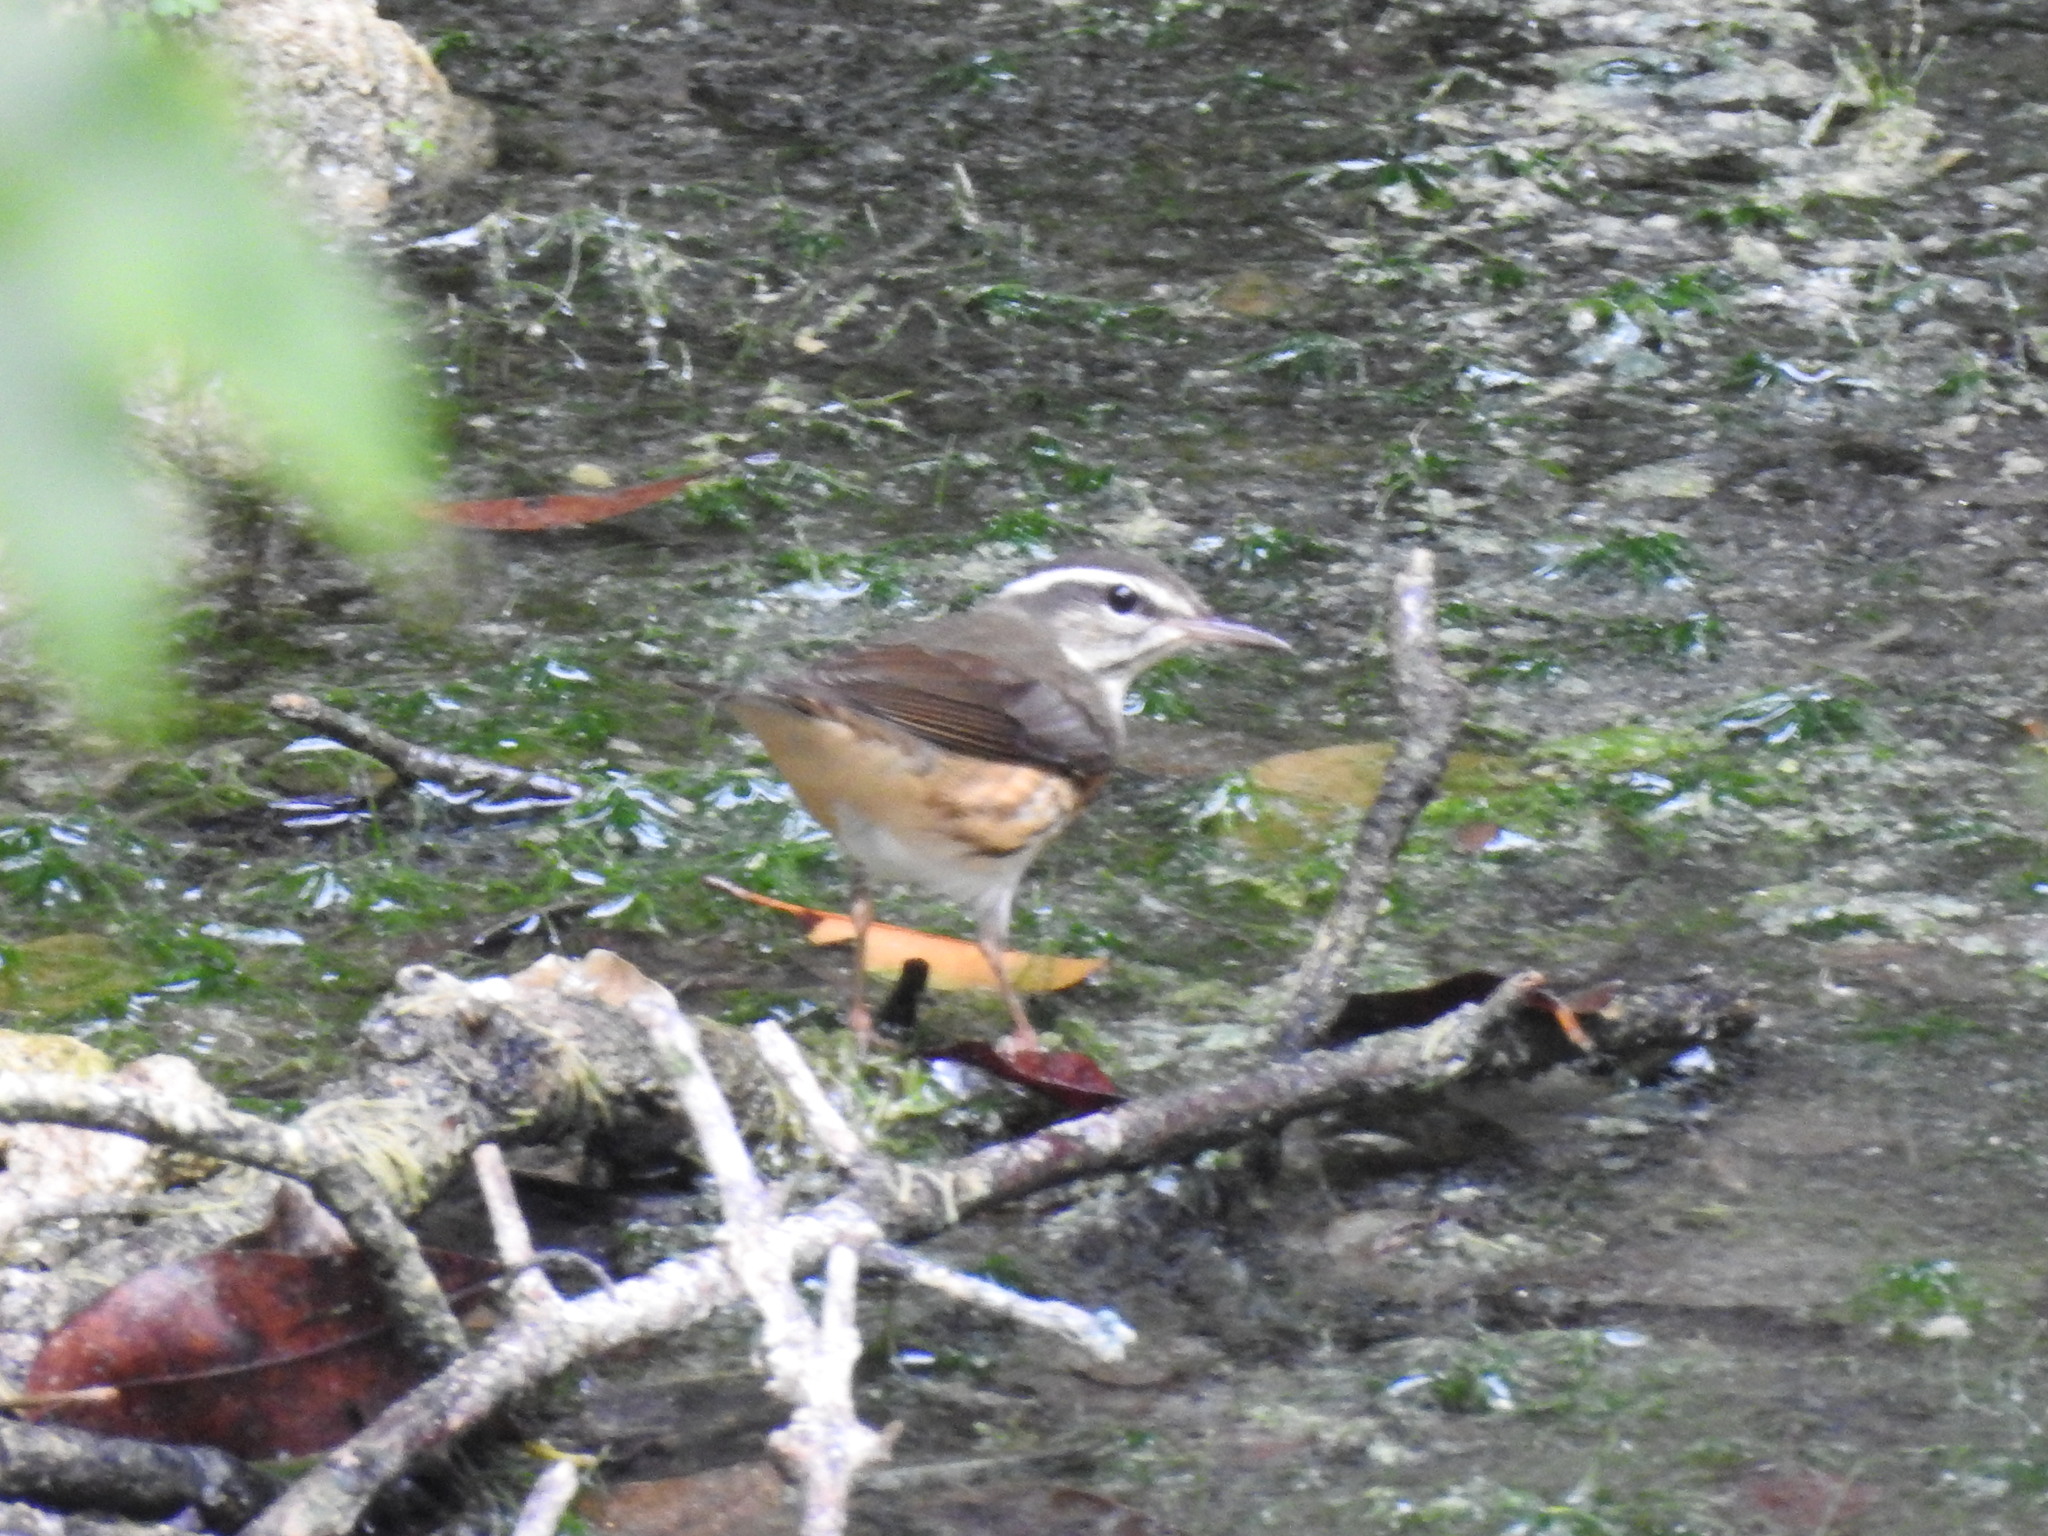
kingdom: Animalia
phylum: Chordata
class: Aves
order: Passeriformes
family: Parulidae
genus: Parkesia
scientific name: Parkesia motacilla
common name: Louisiana waterthrush
